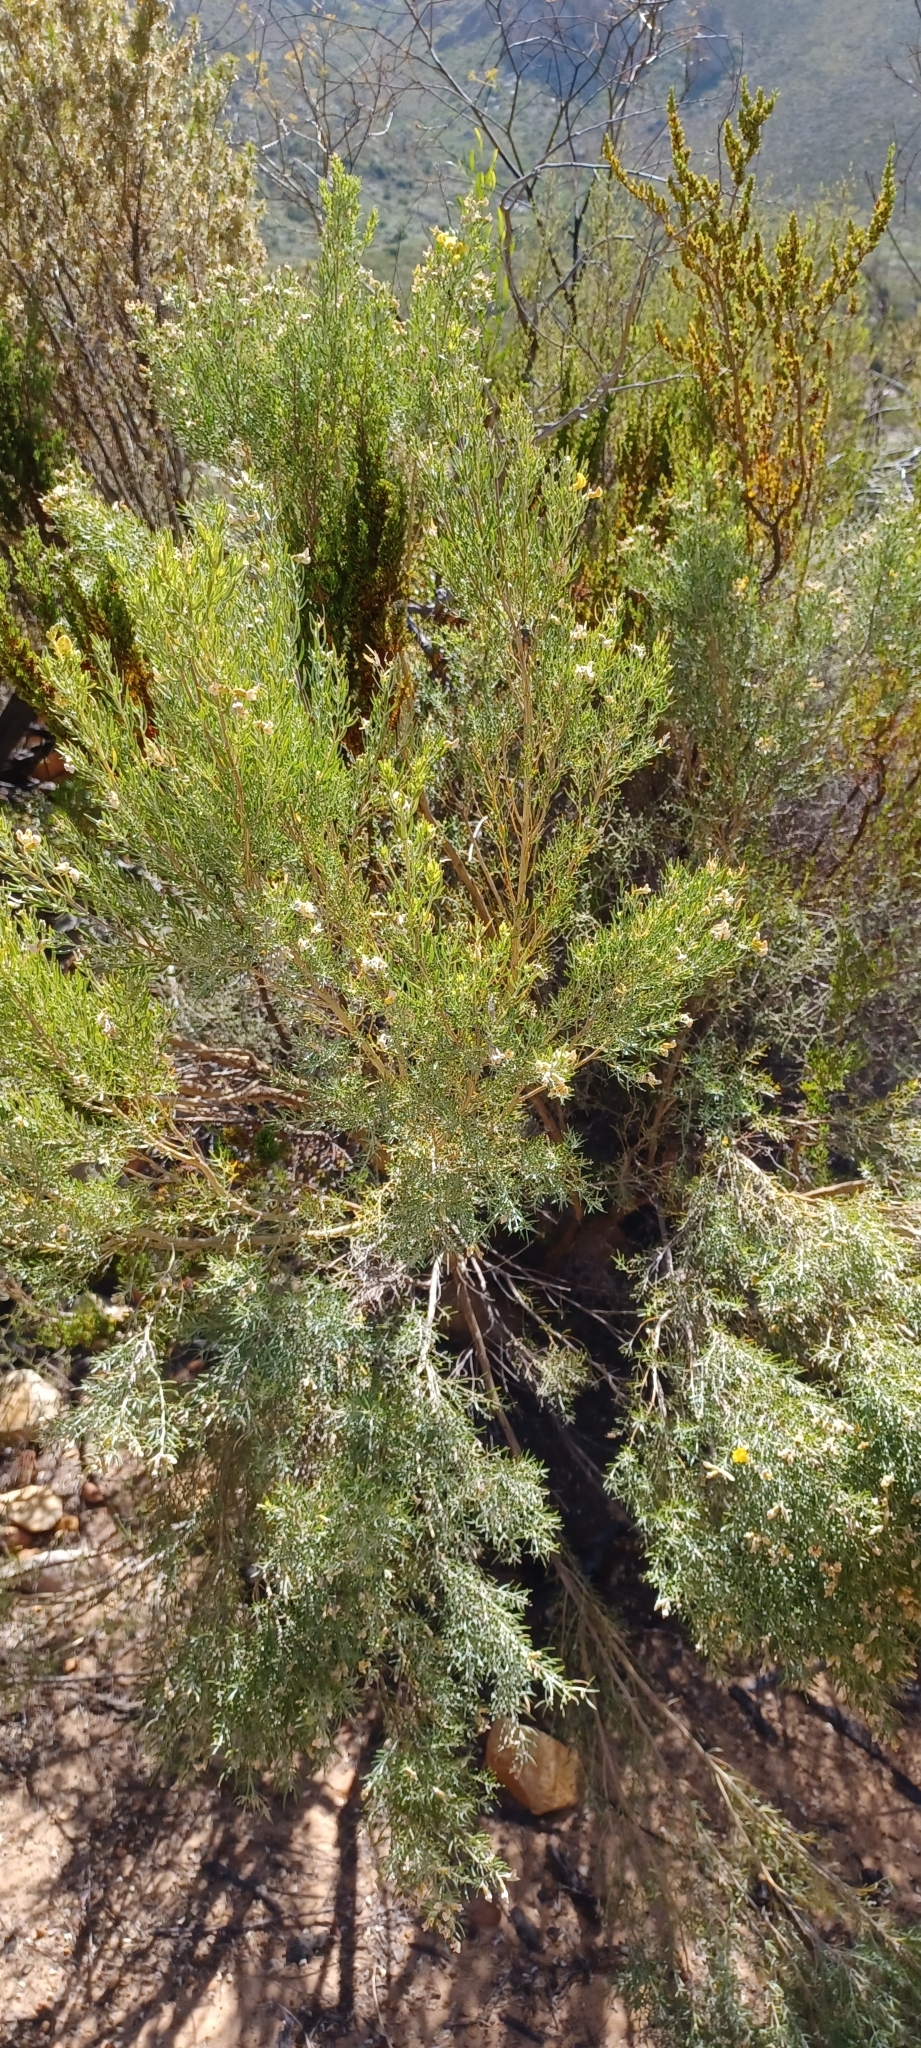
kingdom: Plantae
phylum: Tracheophyta
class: Magnoliopsida
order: Fabales
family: Fabaceae
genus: Aspalathus
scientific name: Aspalathus rugosa
